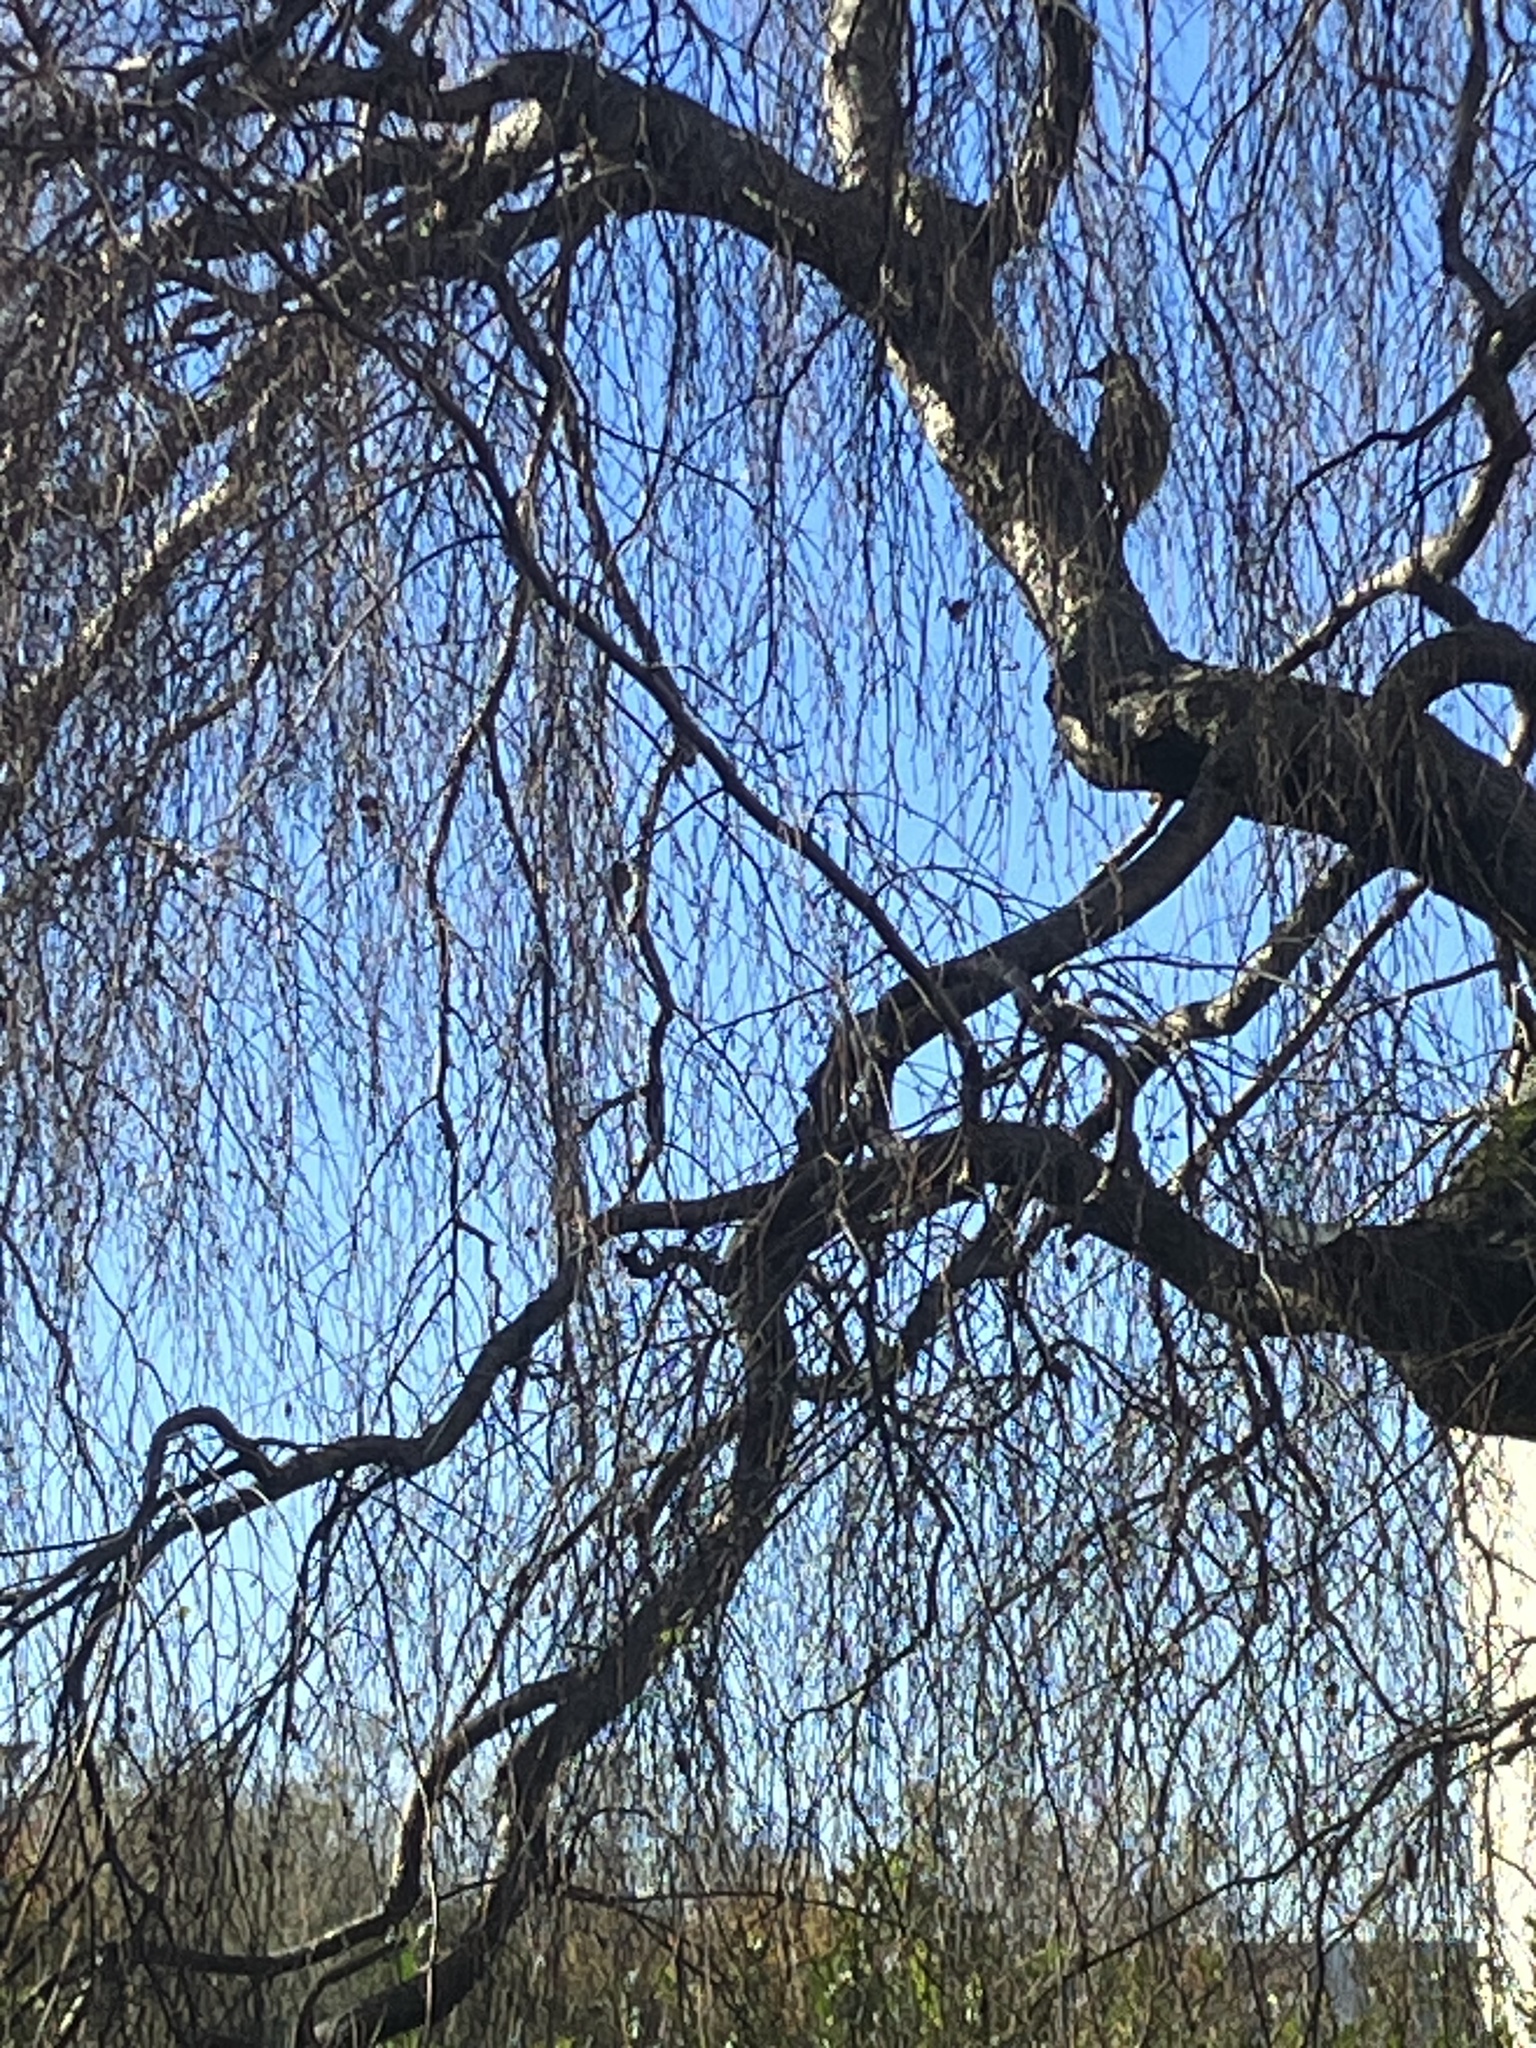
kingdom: Animalia
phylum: Chordata
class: Aves
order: Piciformes
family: Picidae
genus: Picus
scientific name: Picus viridis
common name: European green woodpecker
